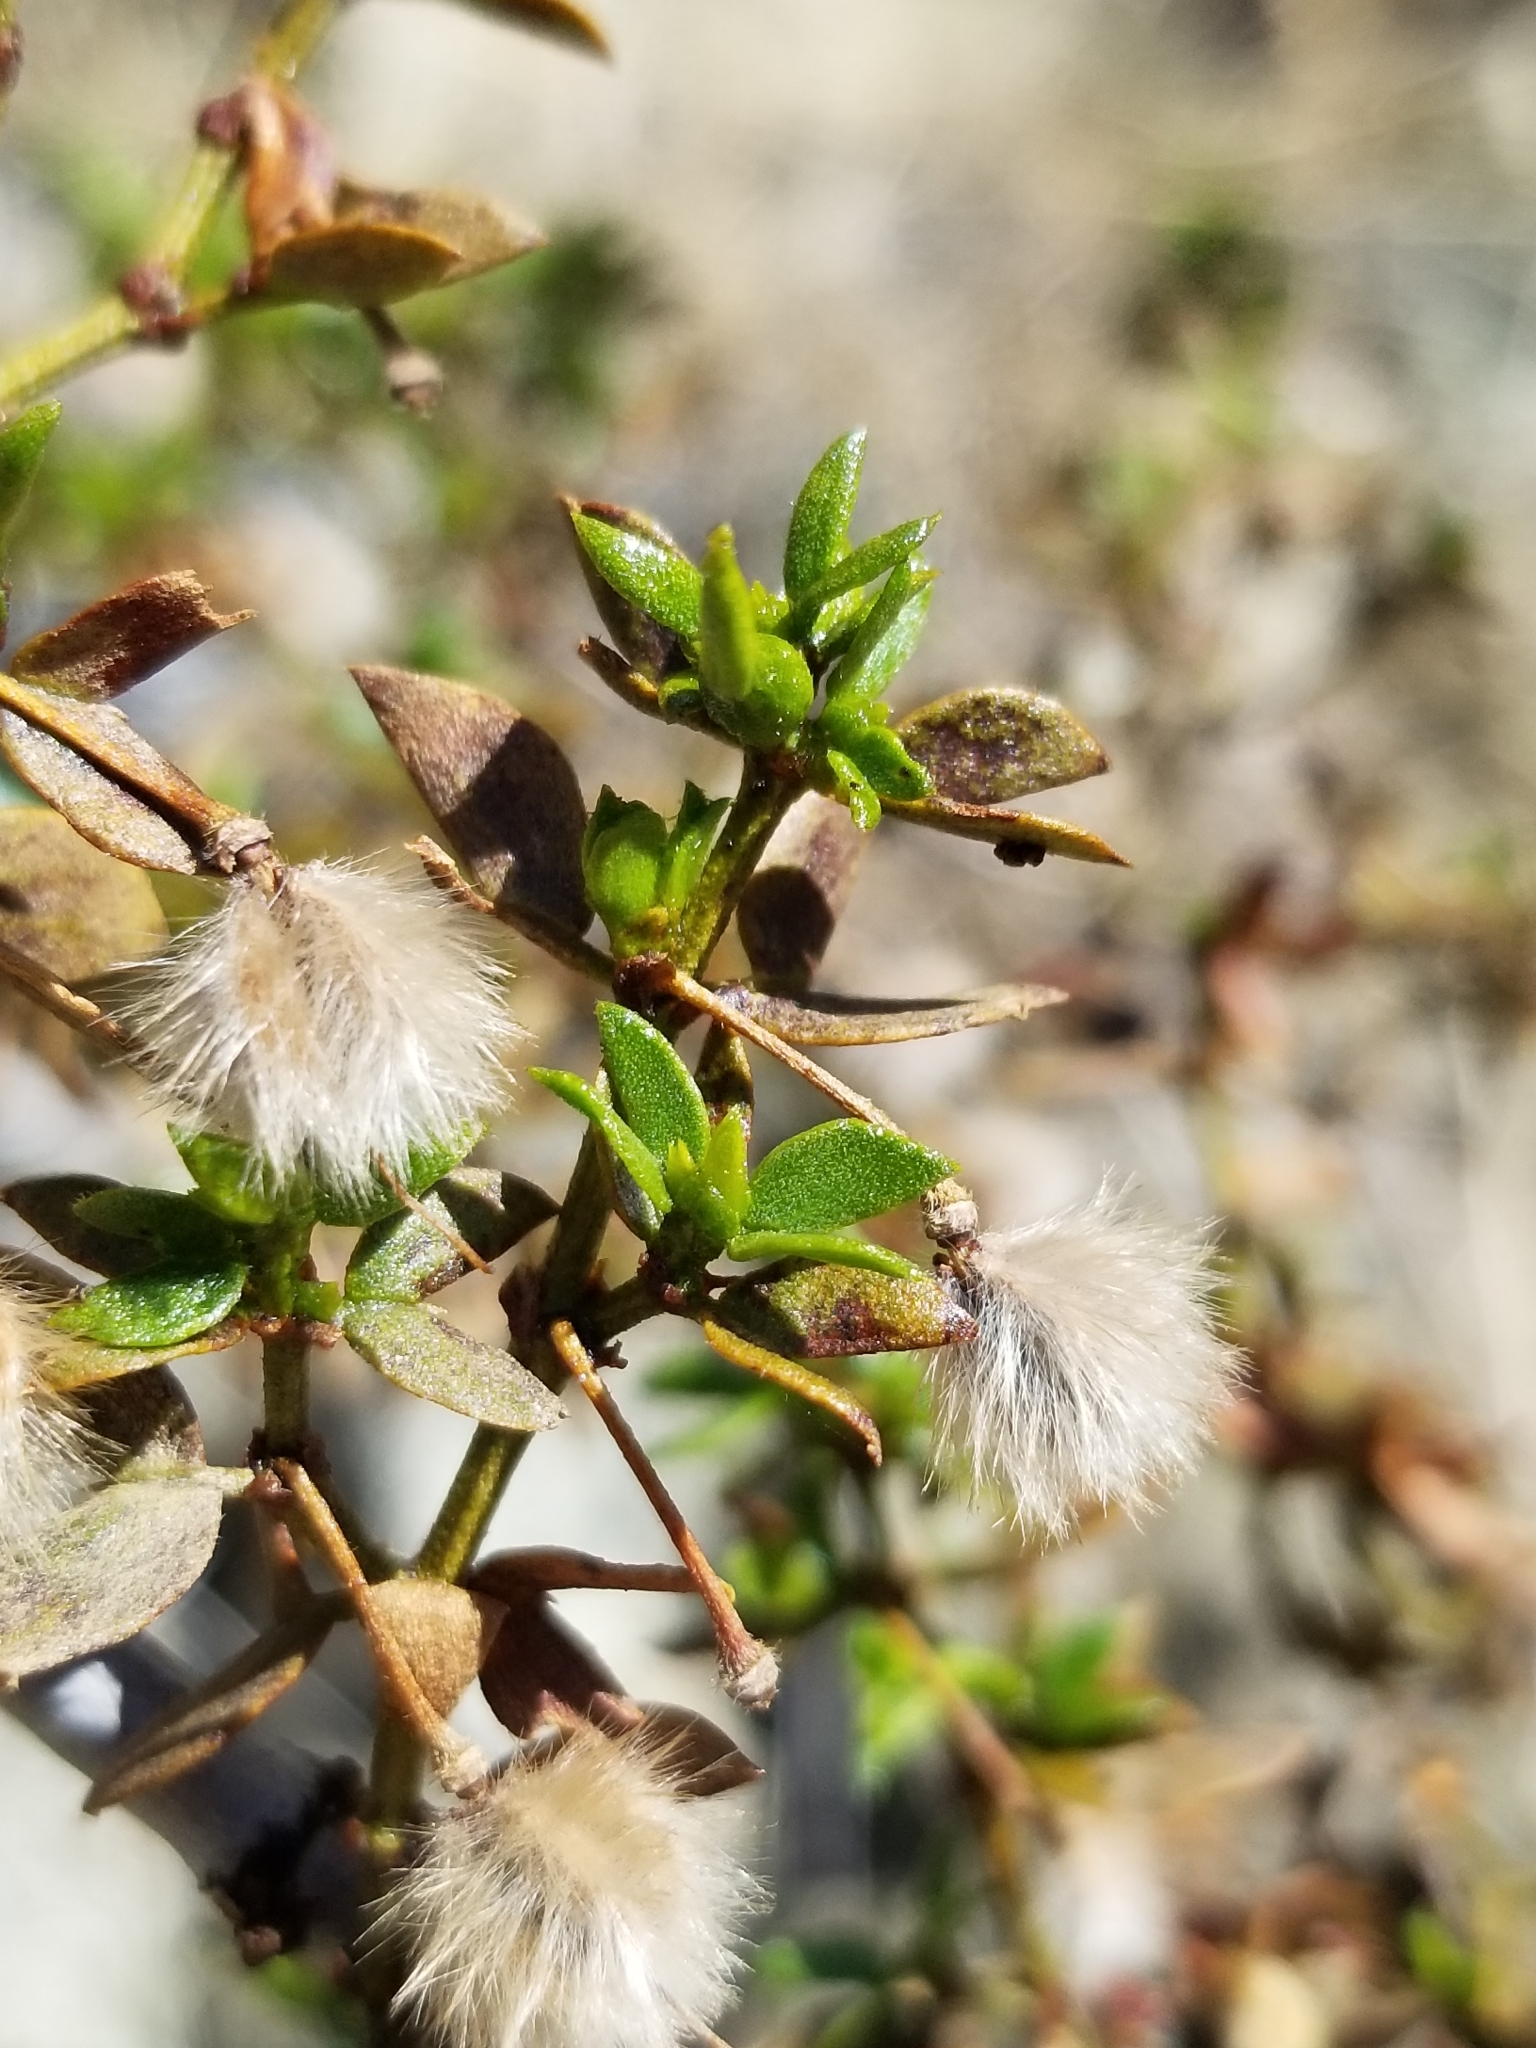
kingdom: Plantae
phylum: Tracheophyta
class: Magnoliopsida
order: Zygophyllales
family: Zygophyllaceae
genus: Larrea
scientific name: Larrea tridentata
